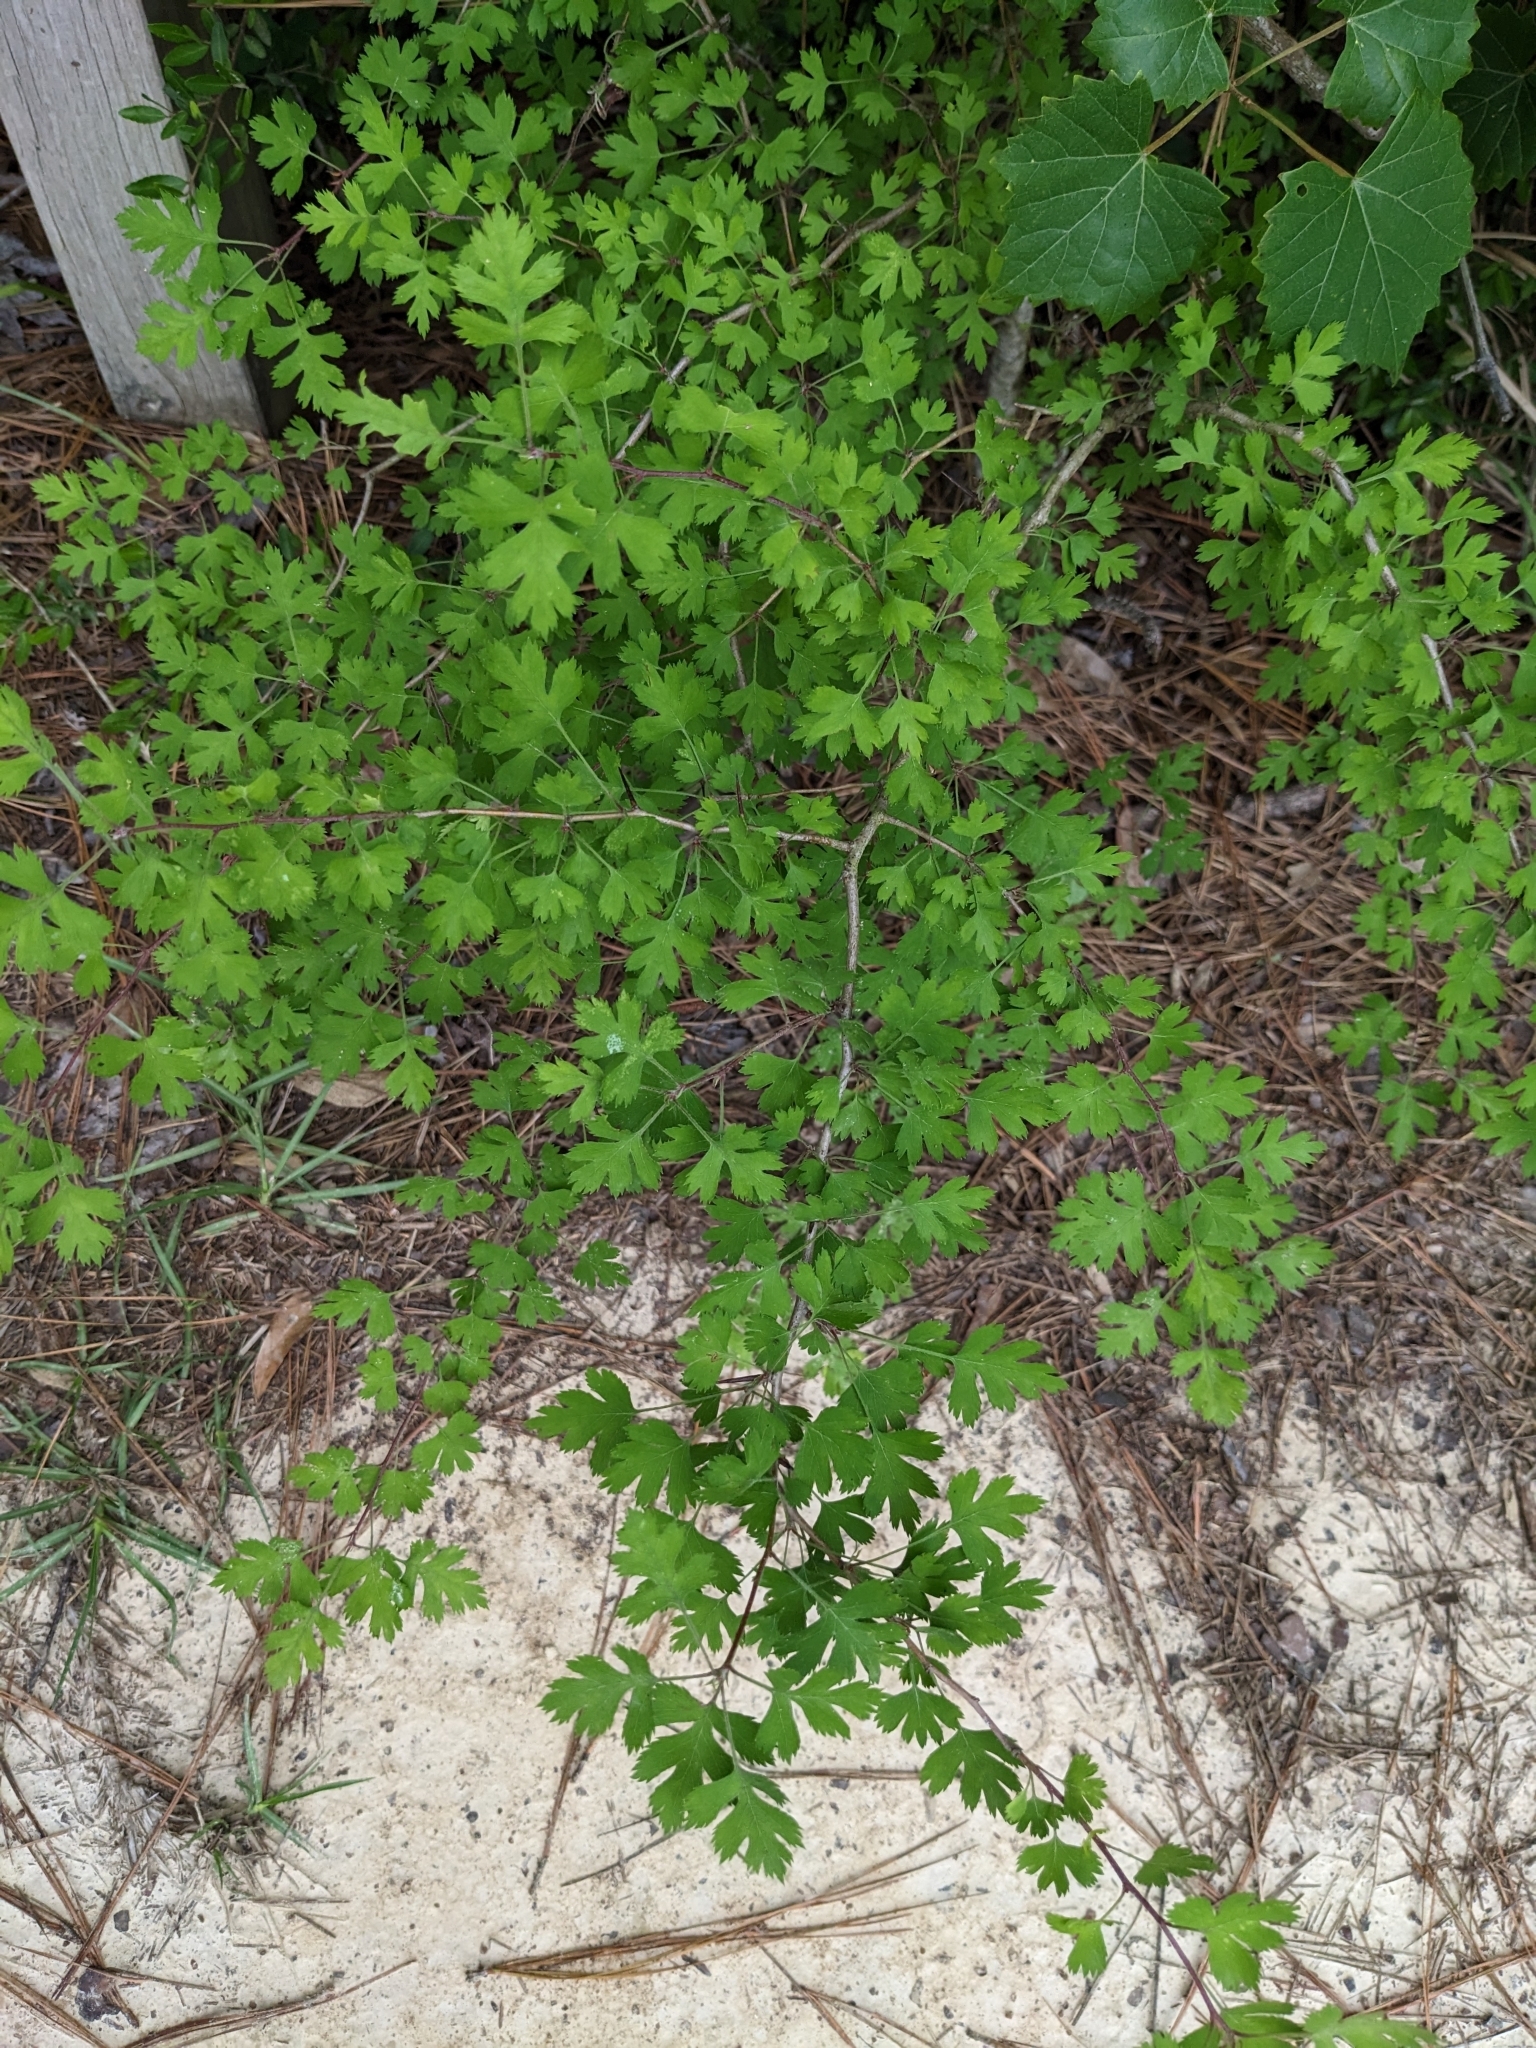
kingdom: Plantae
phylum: Tracheophyta
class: Magnoliopsida
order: Rosales
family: Rosaceae
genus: Crataegus
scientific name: Crataegus marshallii
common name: Parsley-hawthorn
